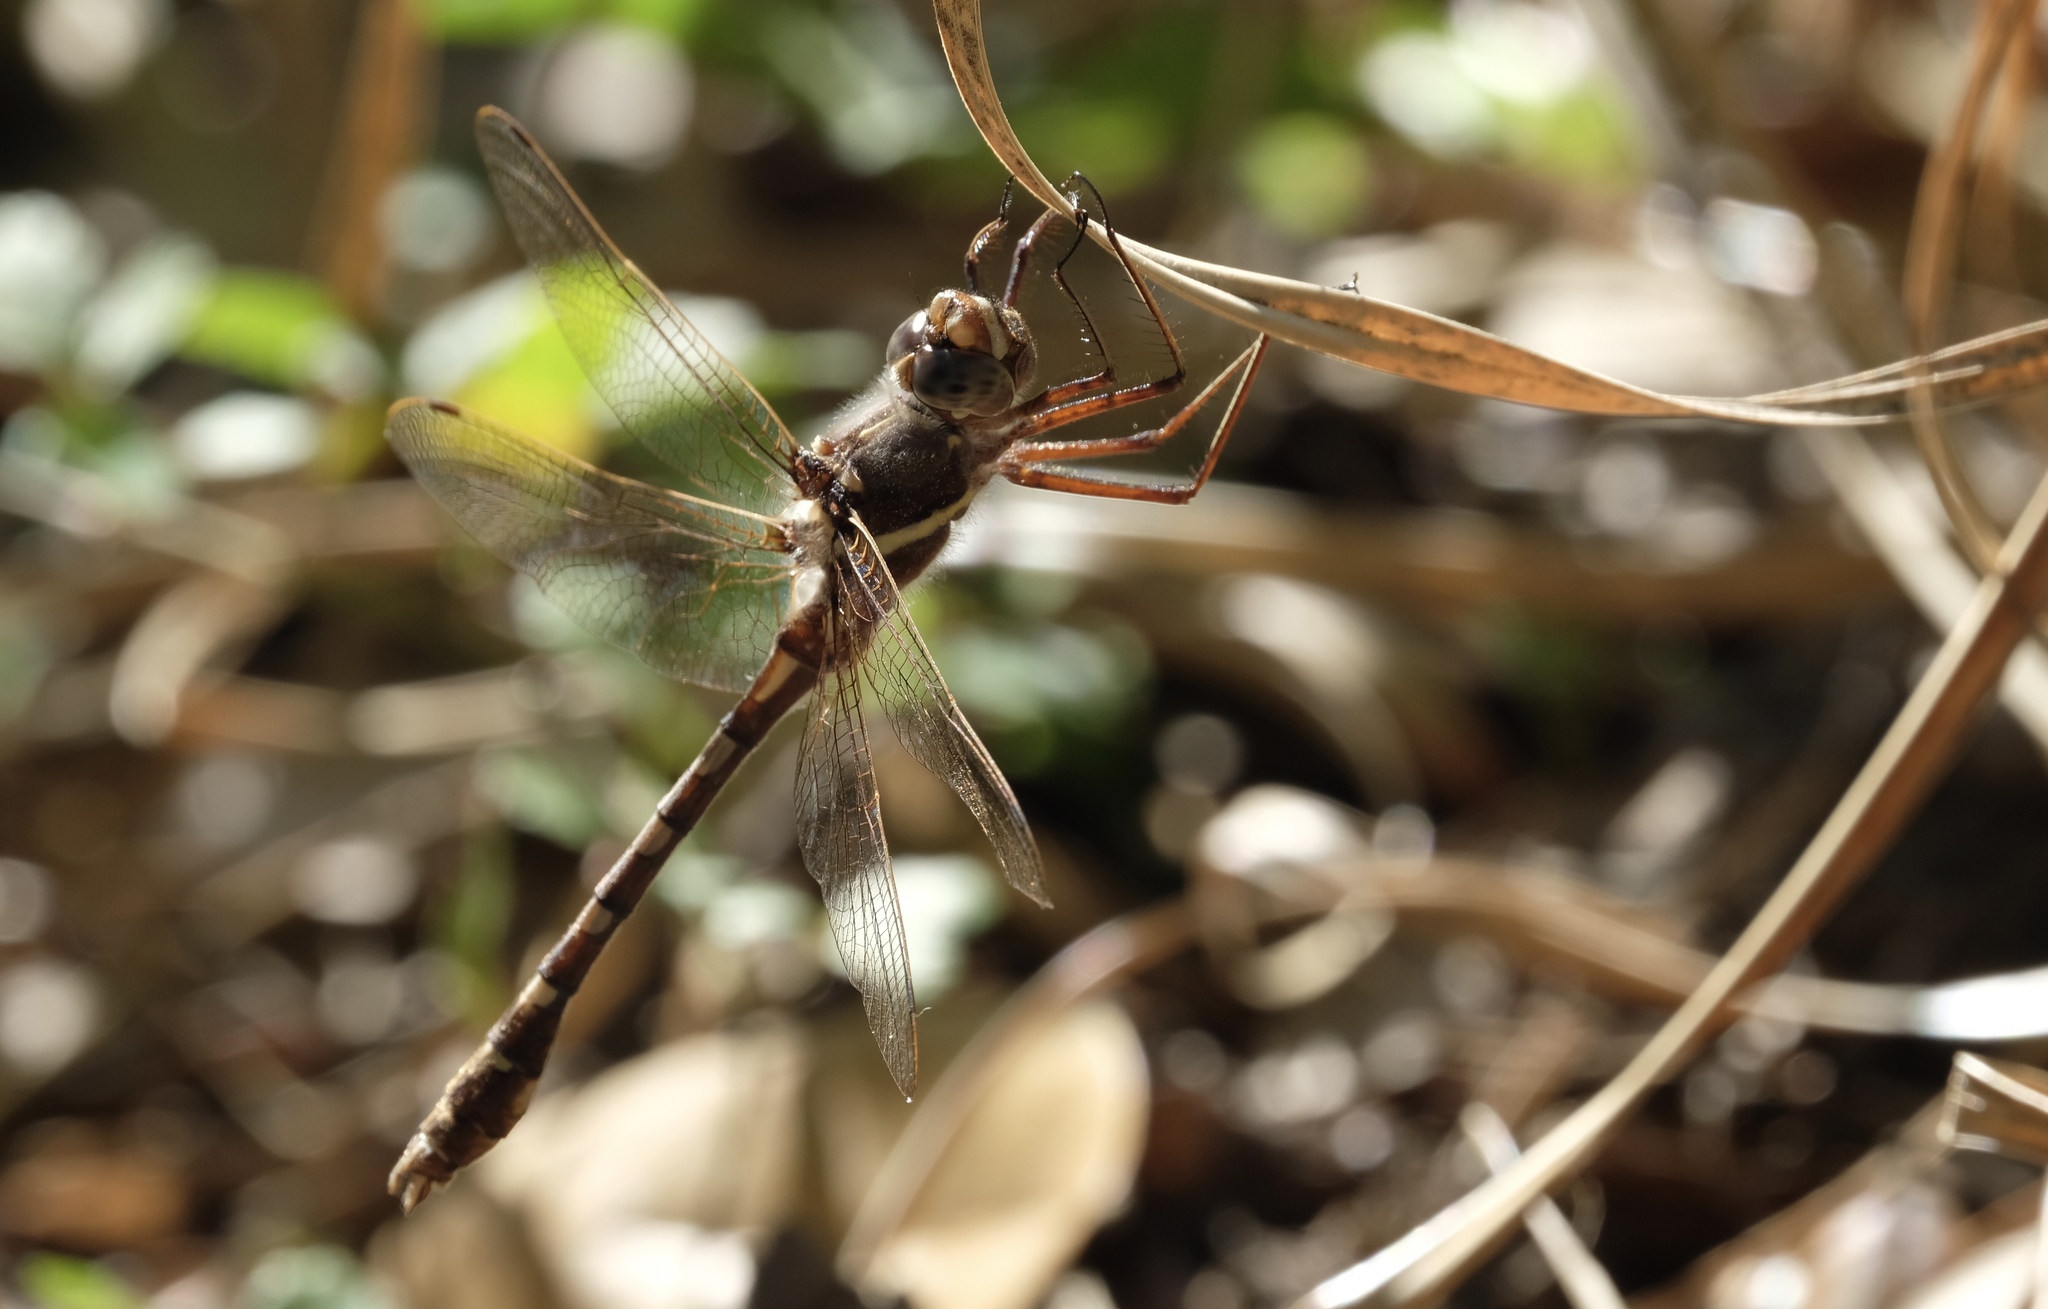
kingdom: Animalia
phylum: Arthropoda
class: Insecta
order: Odonata
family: Macromiidae
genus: Didymops
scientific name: Didymops transversa
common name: Stream cruiser
